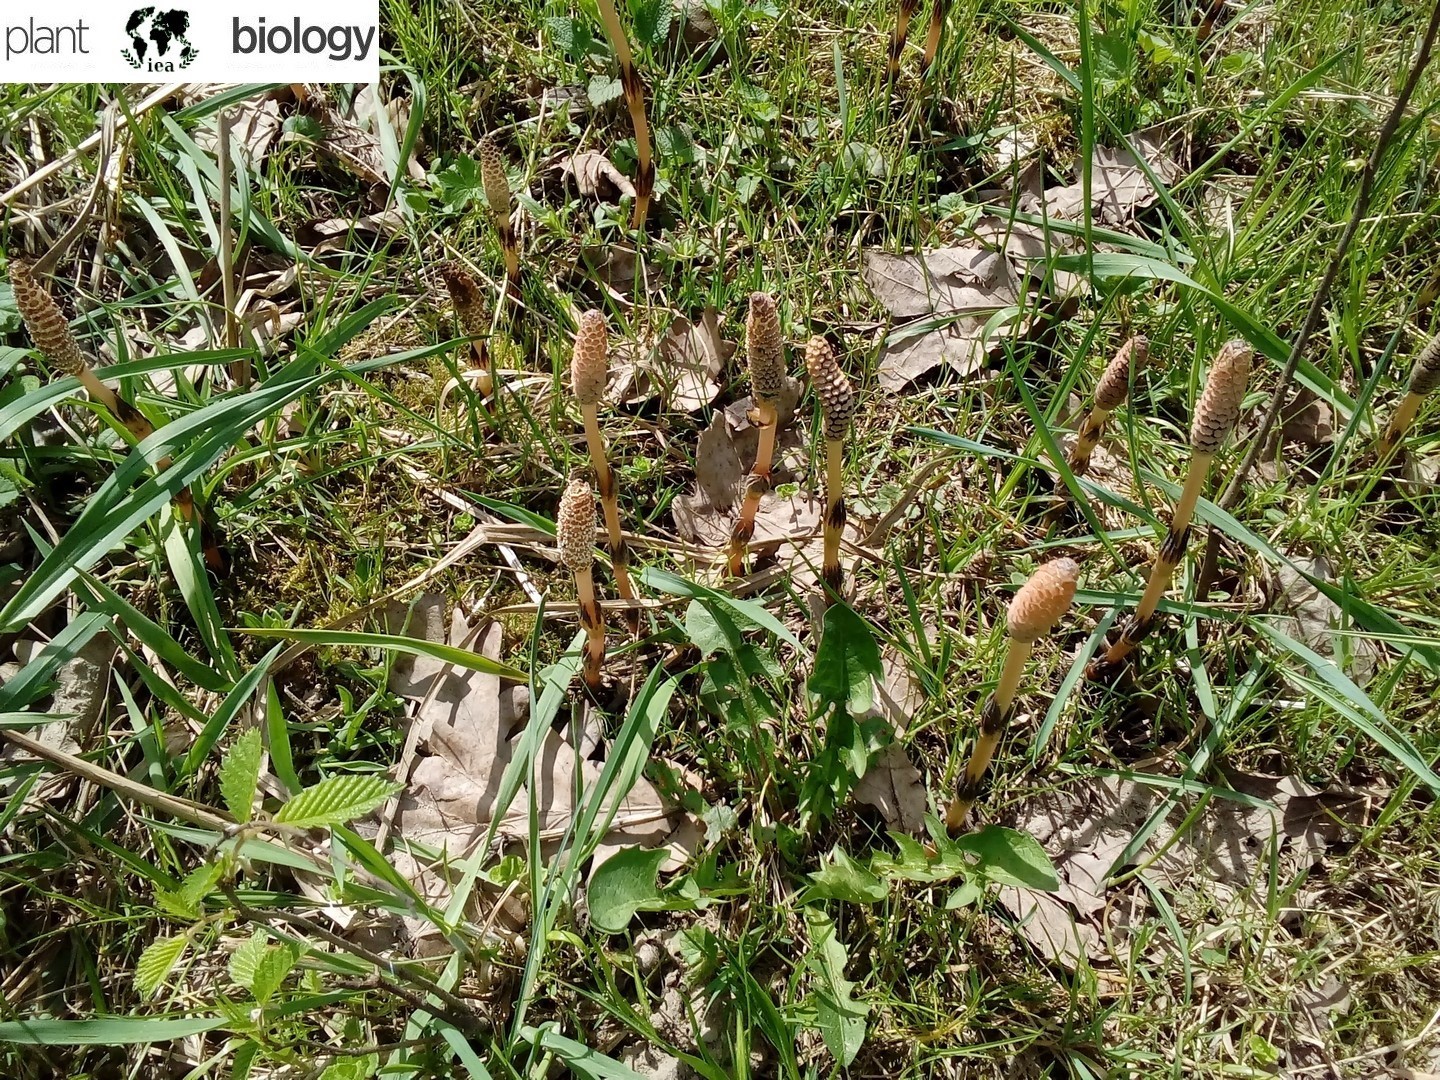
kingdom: Plantae
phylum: Tracheophyta
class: Polypodiopsida
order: Equisetales
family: Equisetaceae
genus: Equisetum
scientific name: Equisetum arvense
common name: Field horsetail
